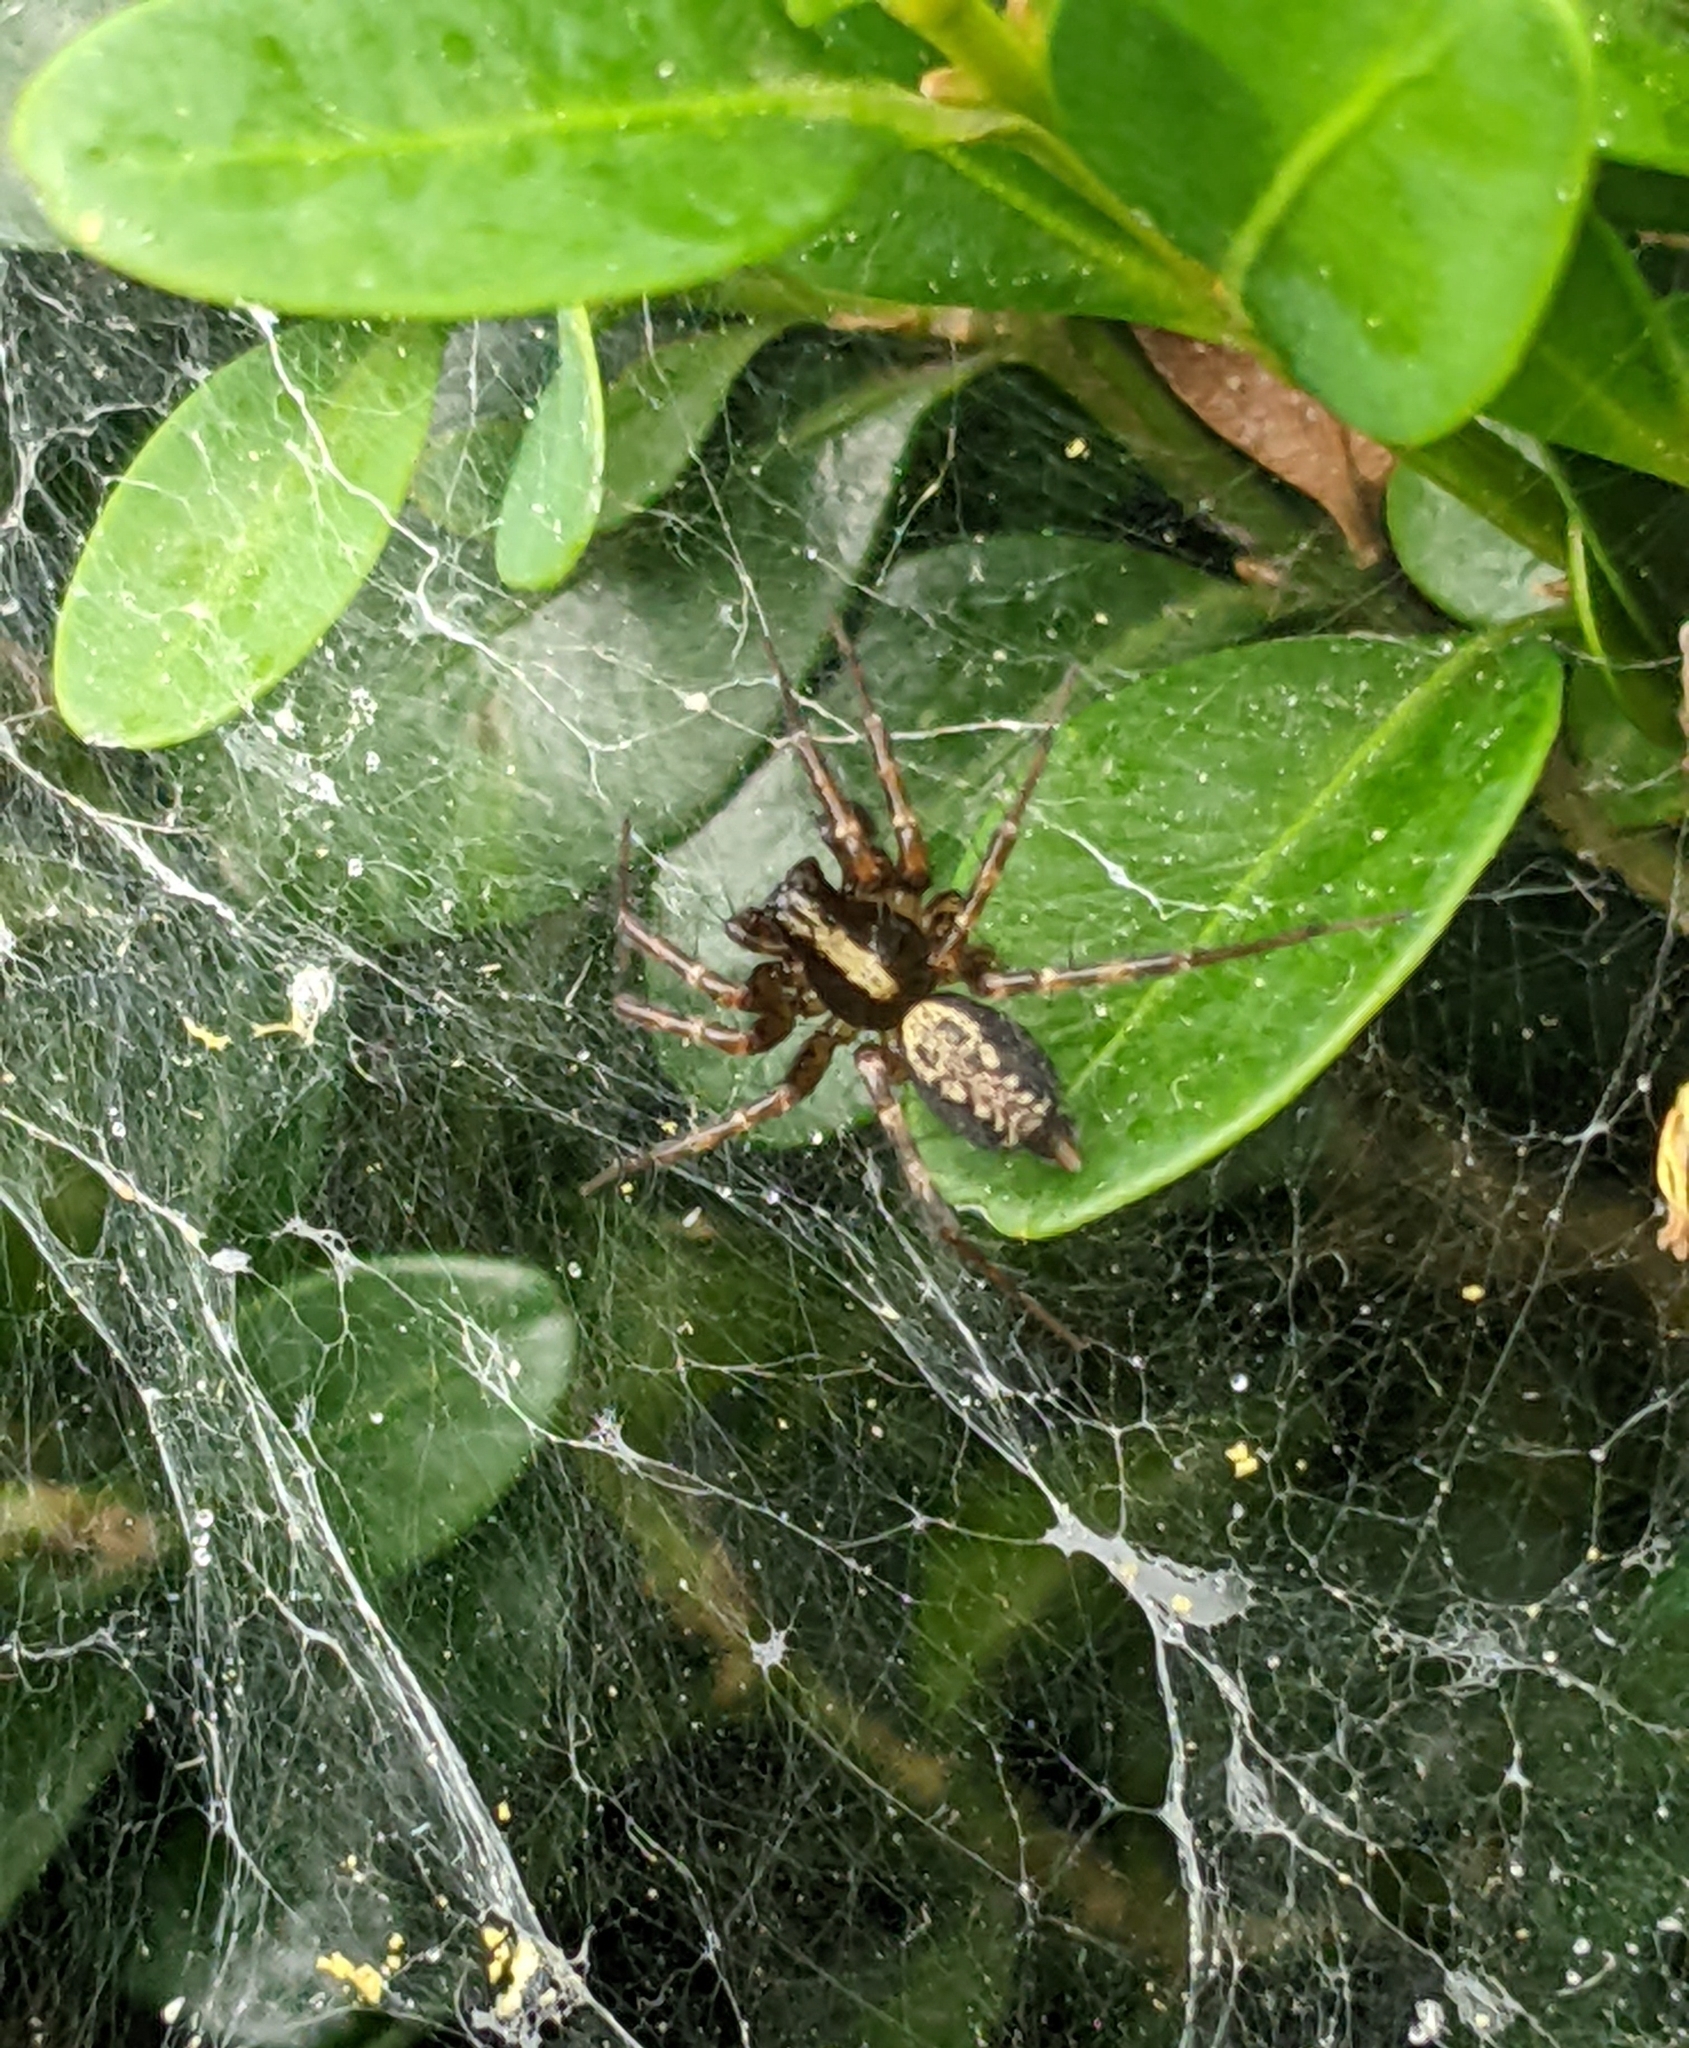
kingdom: Animalia
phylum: Arthropoda
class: Arachnida
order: Araneae
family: Agelenidae
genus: Textrix
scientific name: Textrix denticulata
